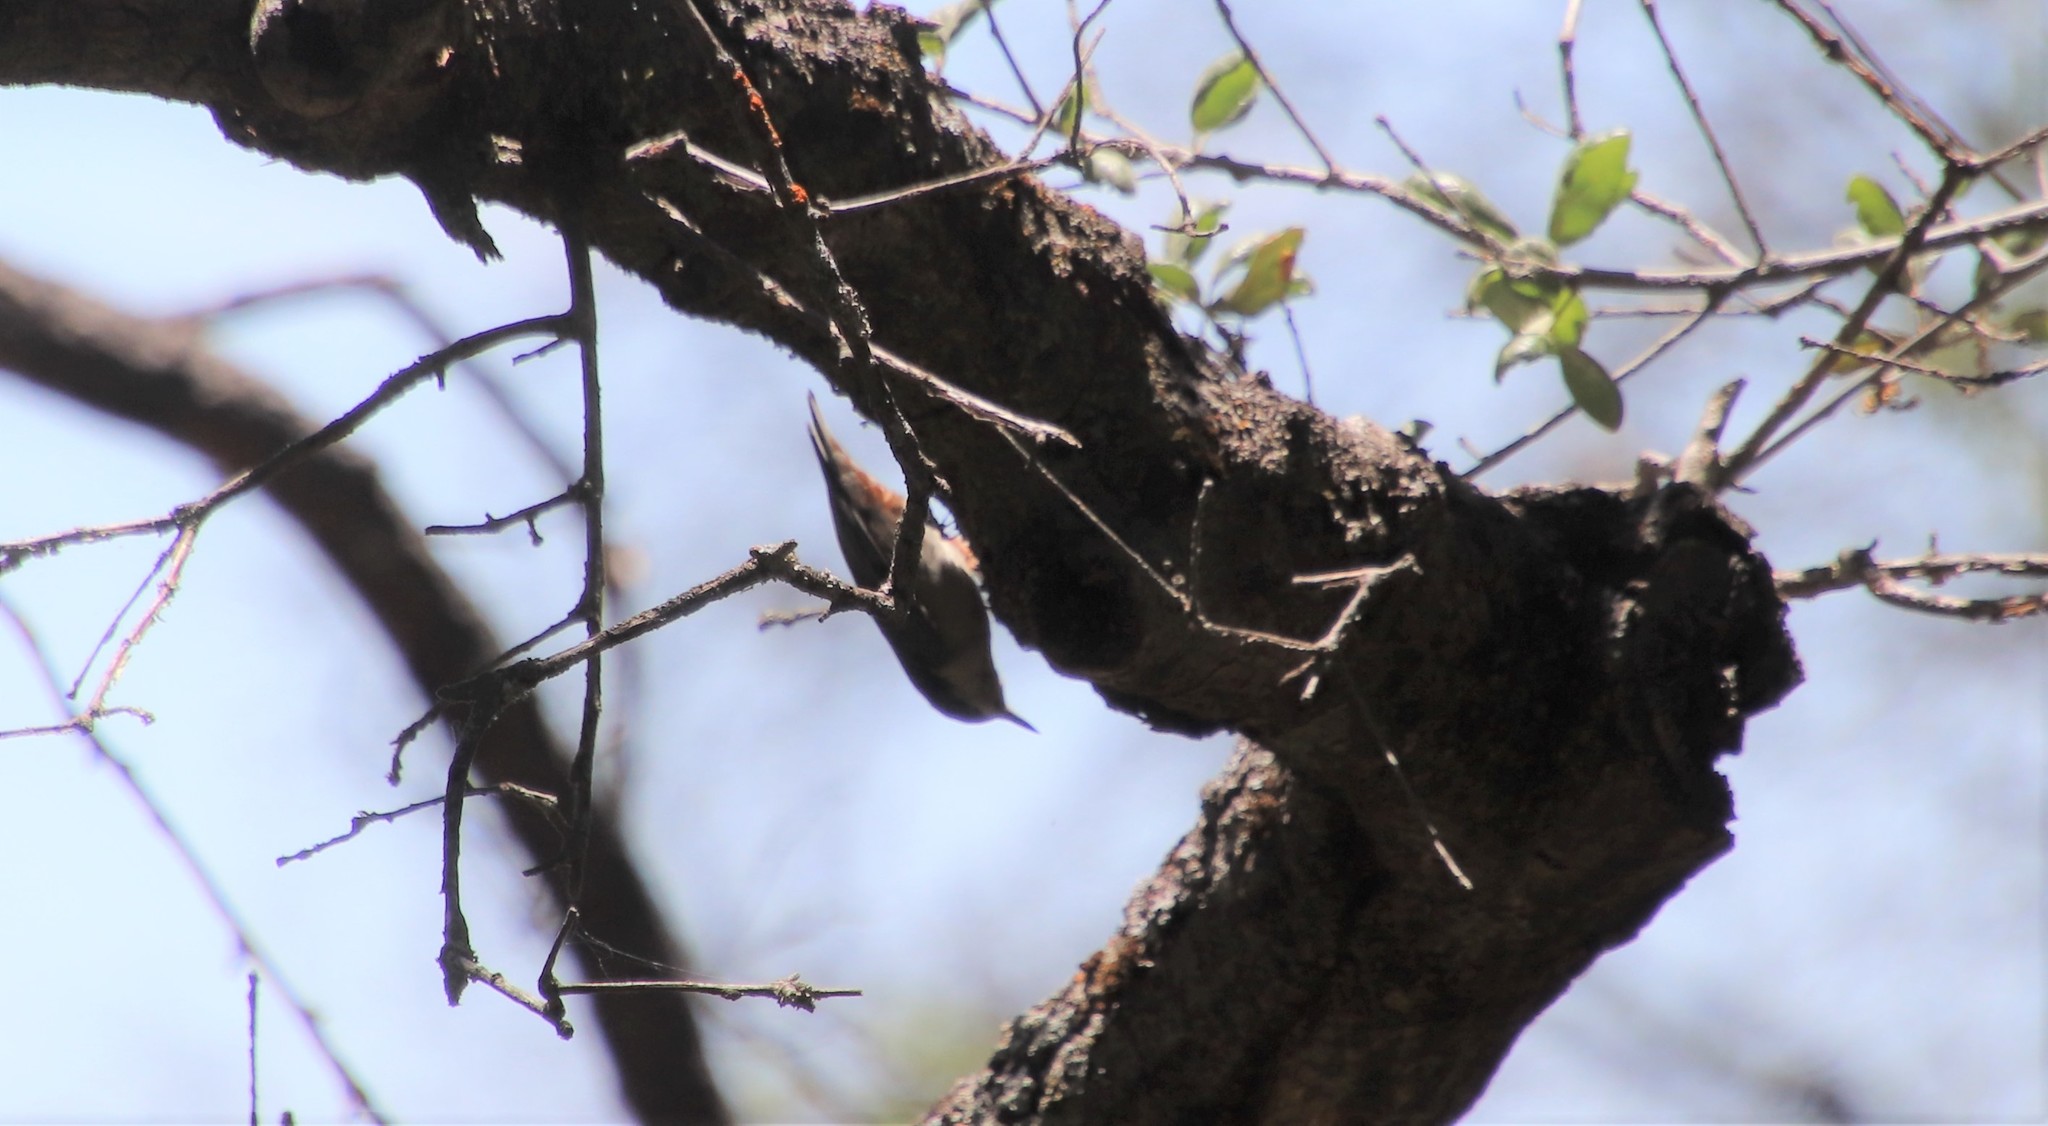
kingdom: Animalia
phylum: Chordata
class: Aves
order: Passeriformes
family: Sittidae
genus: Sitta
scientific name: Sitta carolinensis
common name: White-breasted nuthatch
